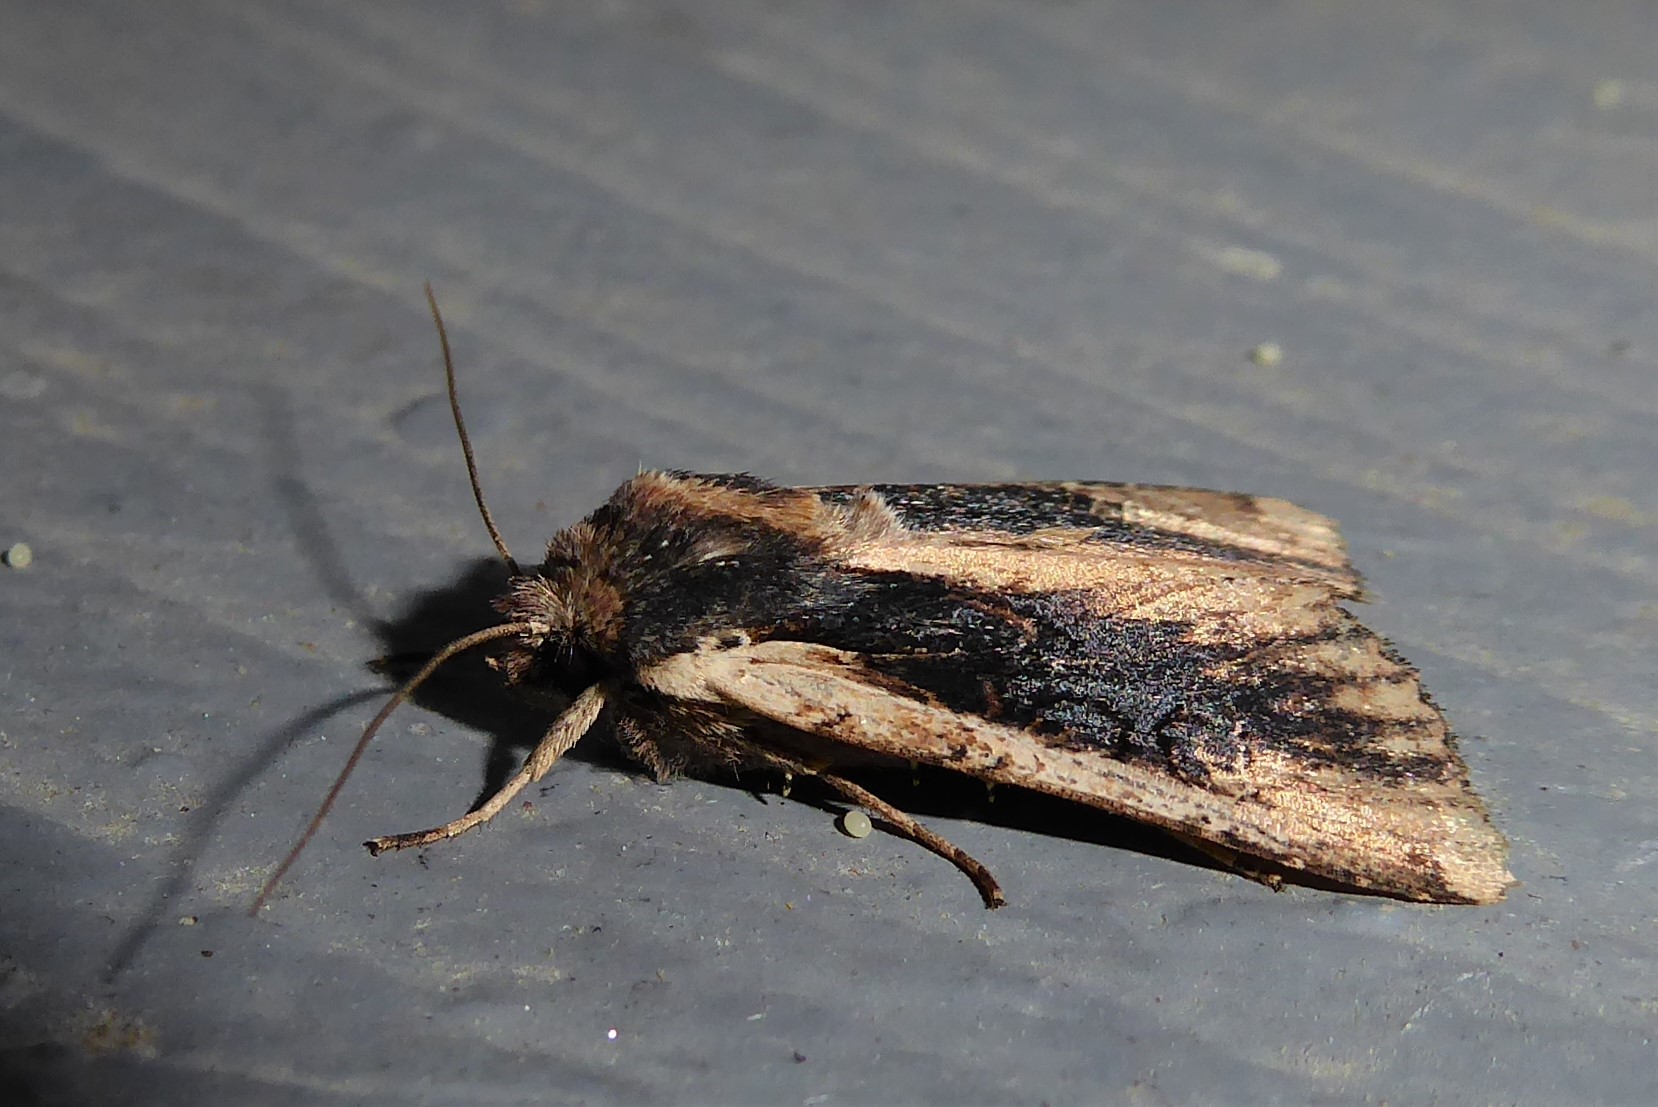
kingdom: Animalia
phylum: Arthropoda
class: Insecta
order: Lepidoptera
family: Noctuidae
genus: Ichneutica
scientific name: Ichneutica omoplaca
